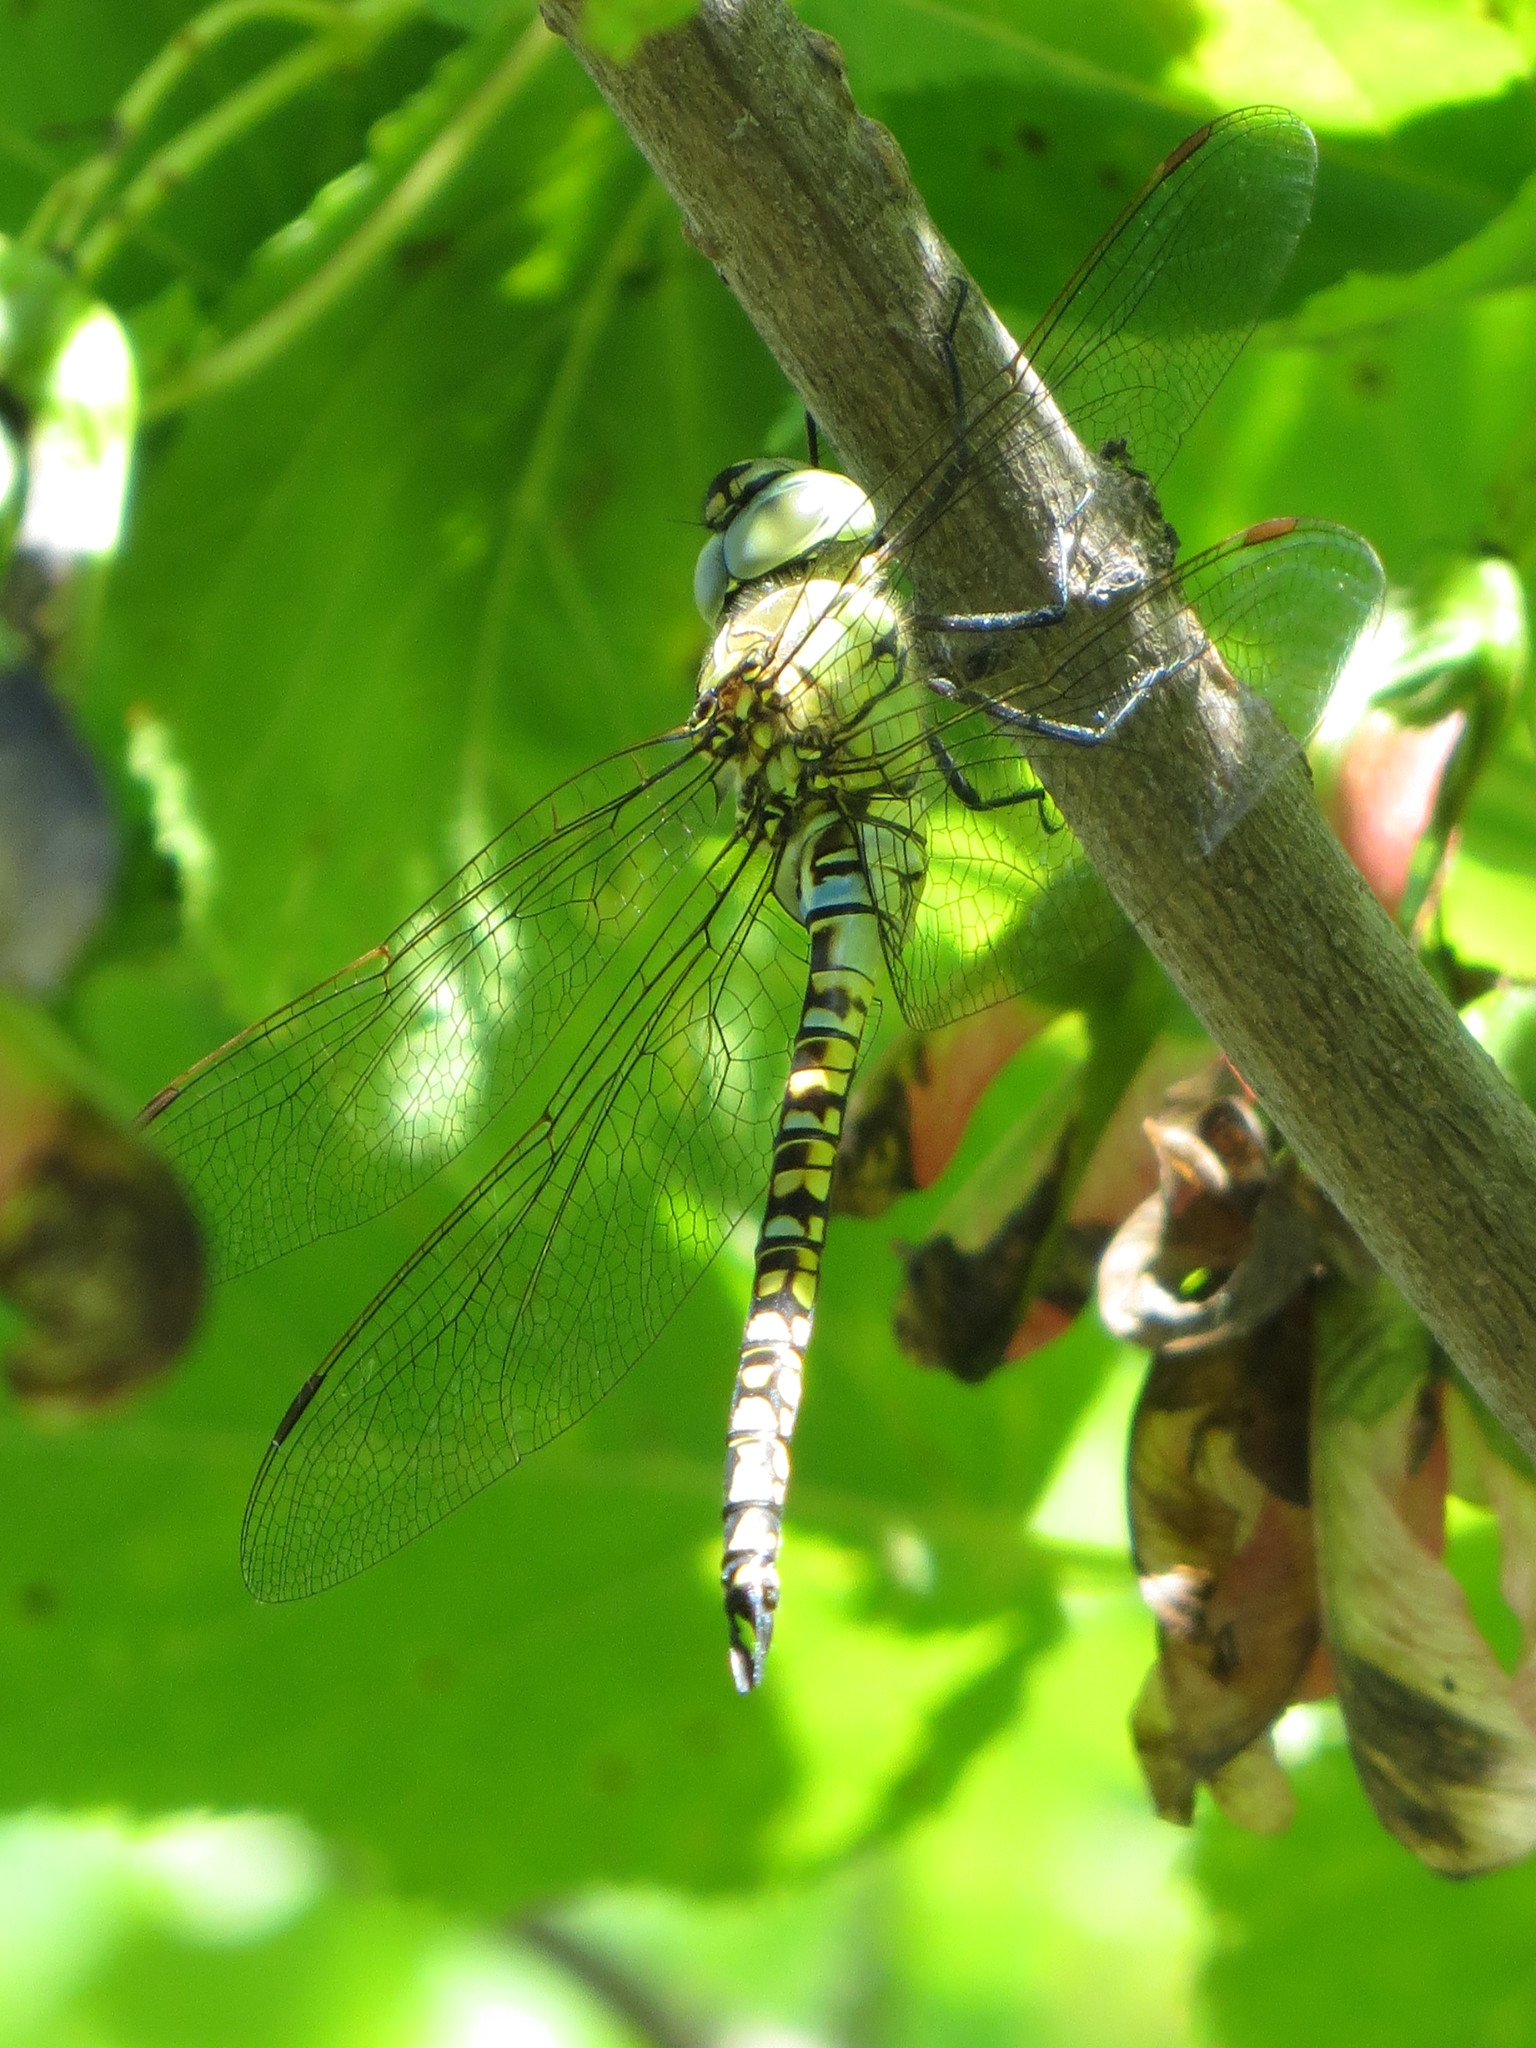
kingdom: Animalia
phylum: Arthropoda
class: Insecta
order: Odonata
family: Aeshnidae
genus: Aeshna
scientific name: Aeshna affinis
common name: Southern migrant hawker
